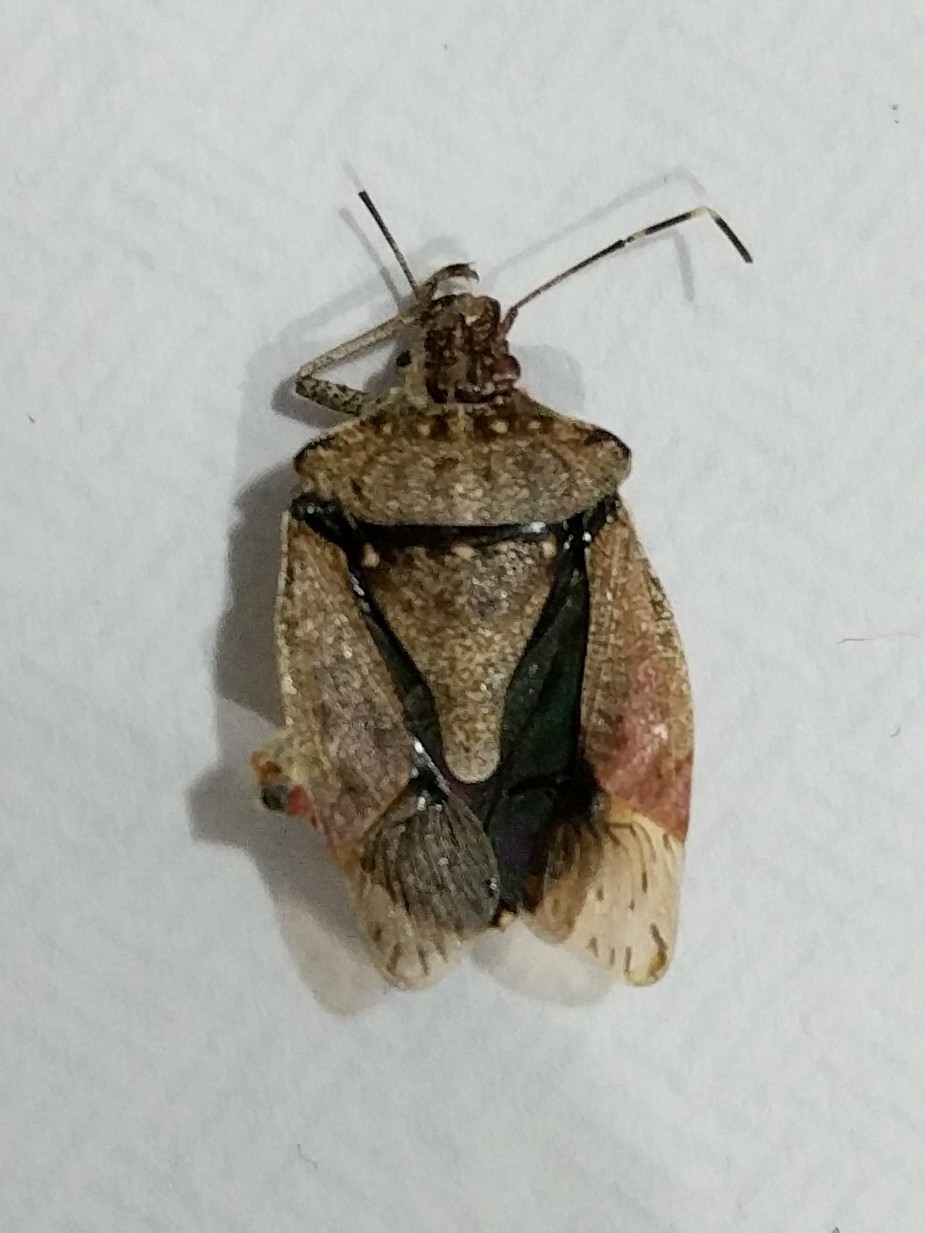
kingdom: Animalia
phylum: Arthropoda
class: Insecta
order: Hemiptera
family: Pentatomidae
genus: Halyomorpha
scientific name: Halyomorpha halys
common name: Brown marmorated stink bug
